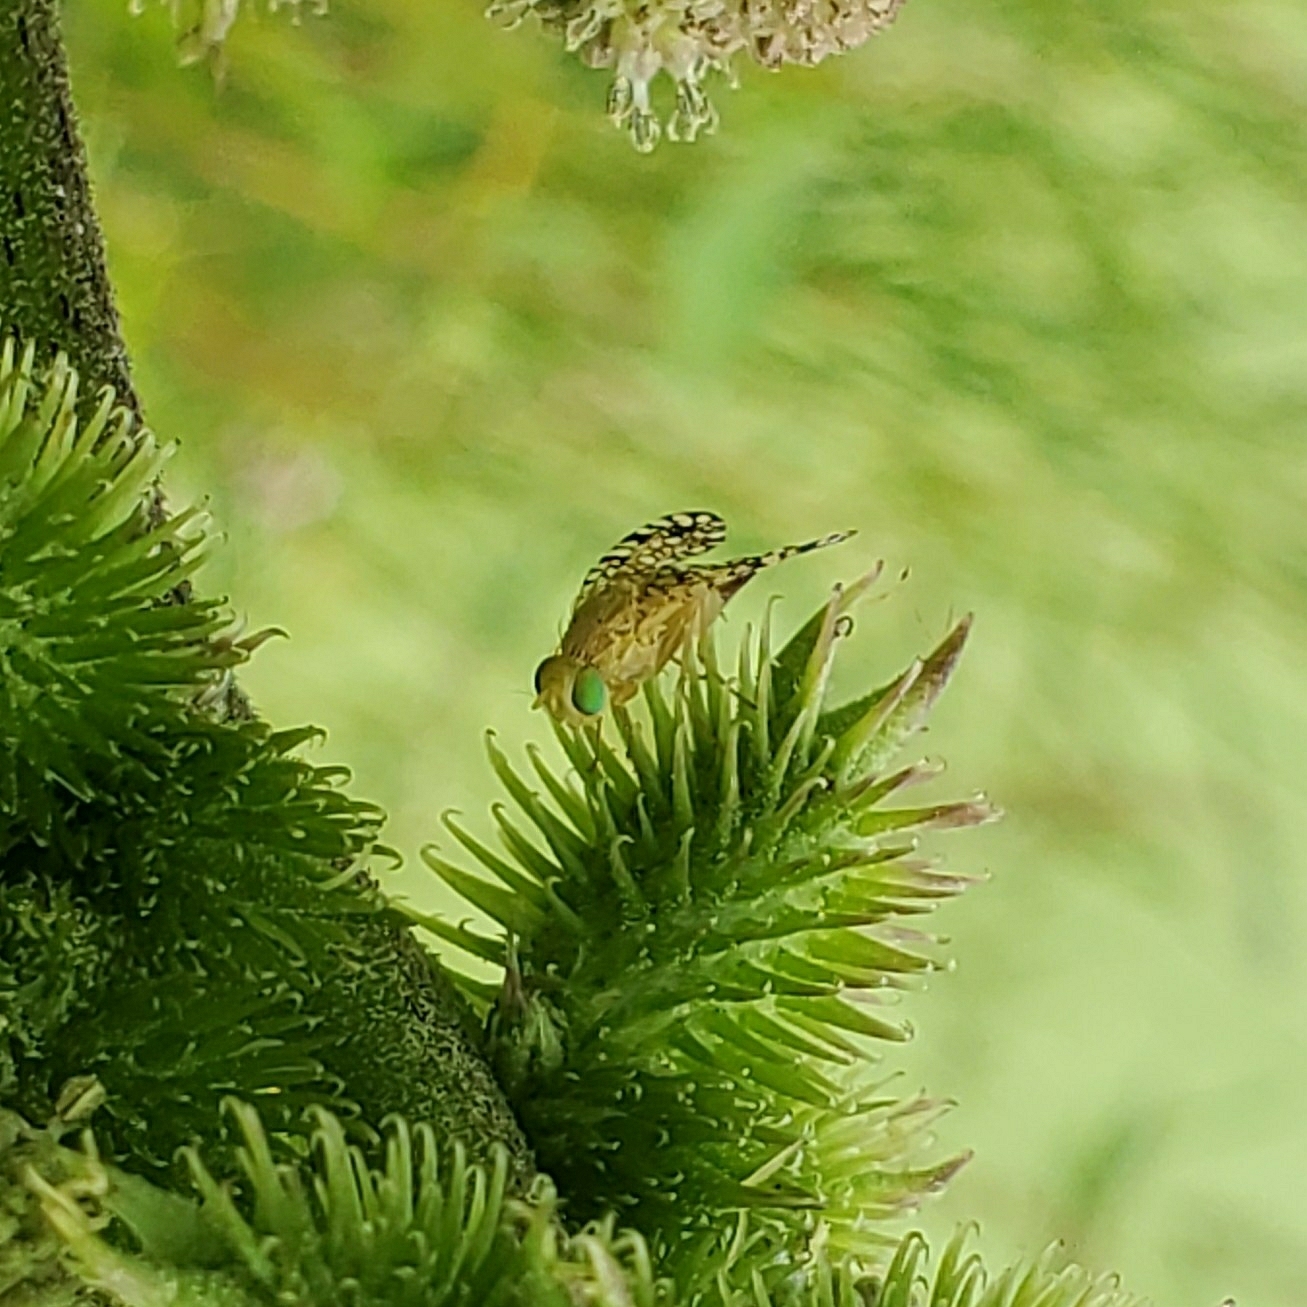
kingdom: Animalia
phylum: Arthropoda
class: Insecta
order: Diptera
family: Tephritidae
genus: Euaresta
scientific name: Euaresta aequalis
